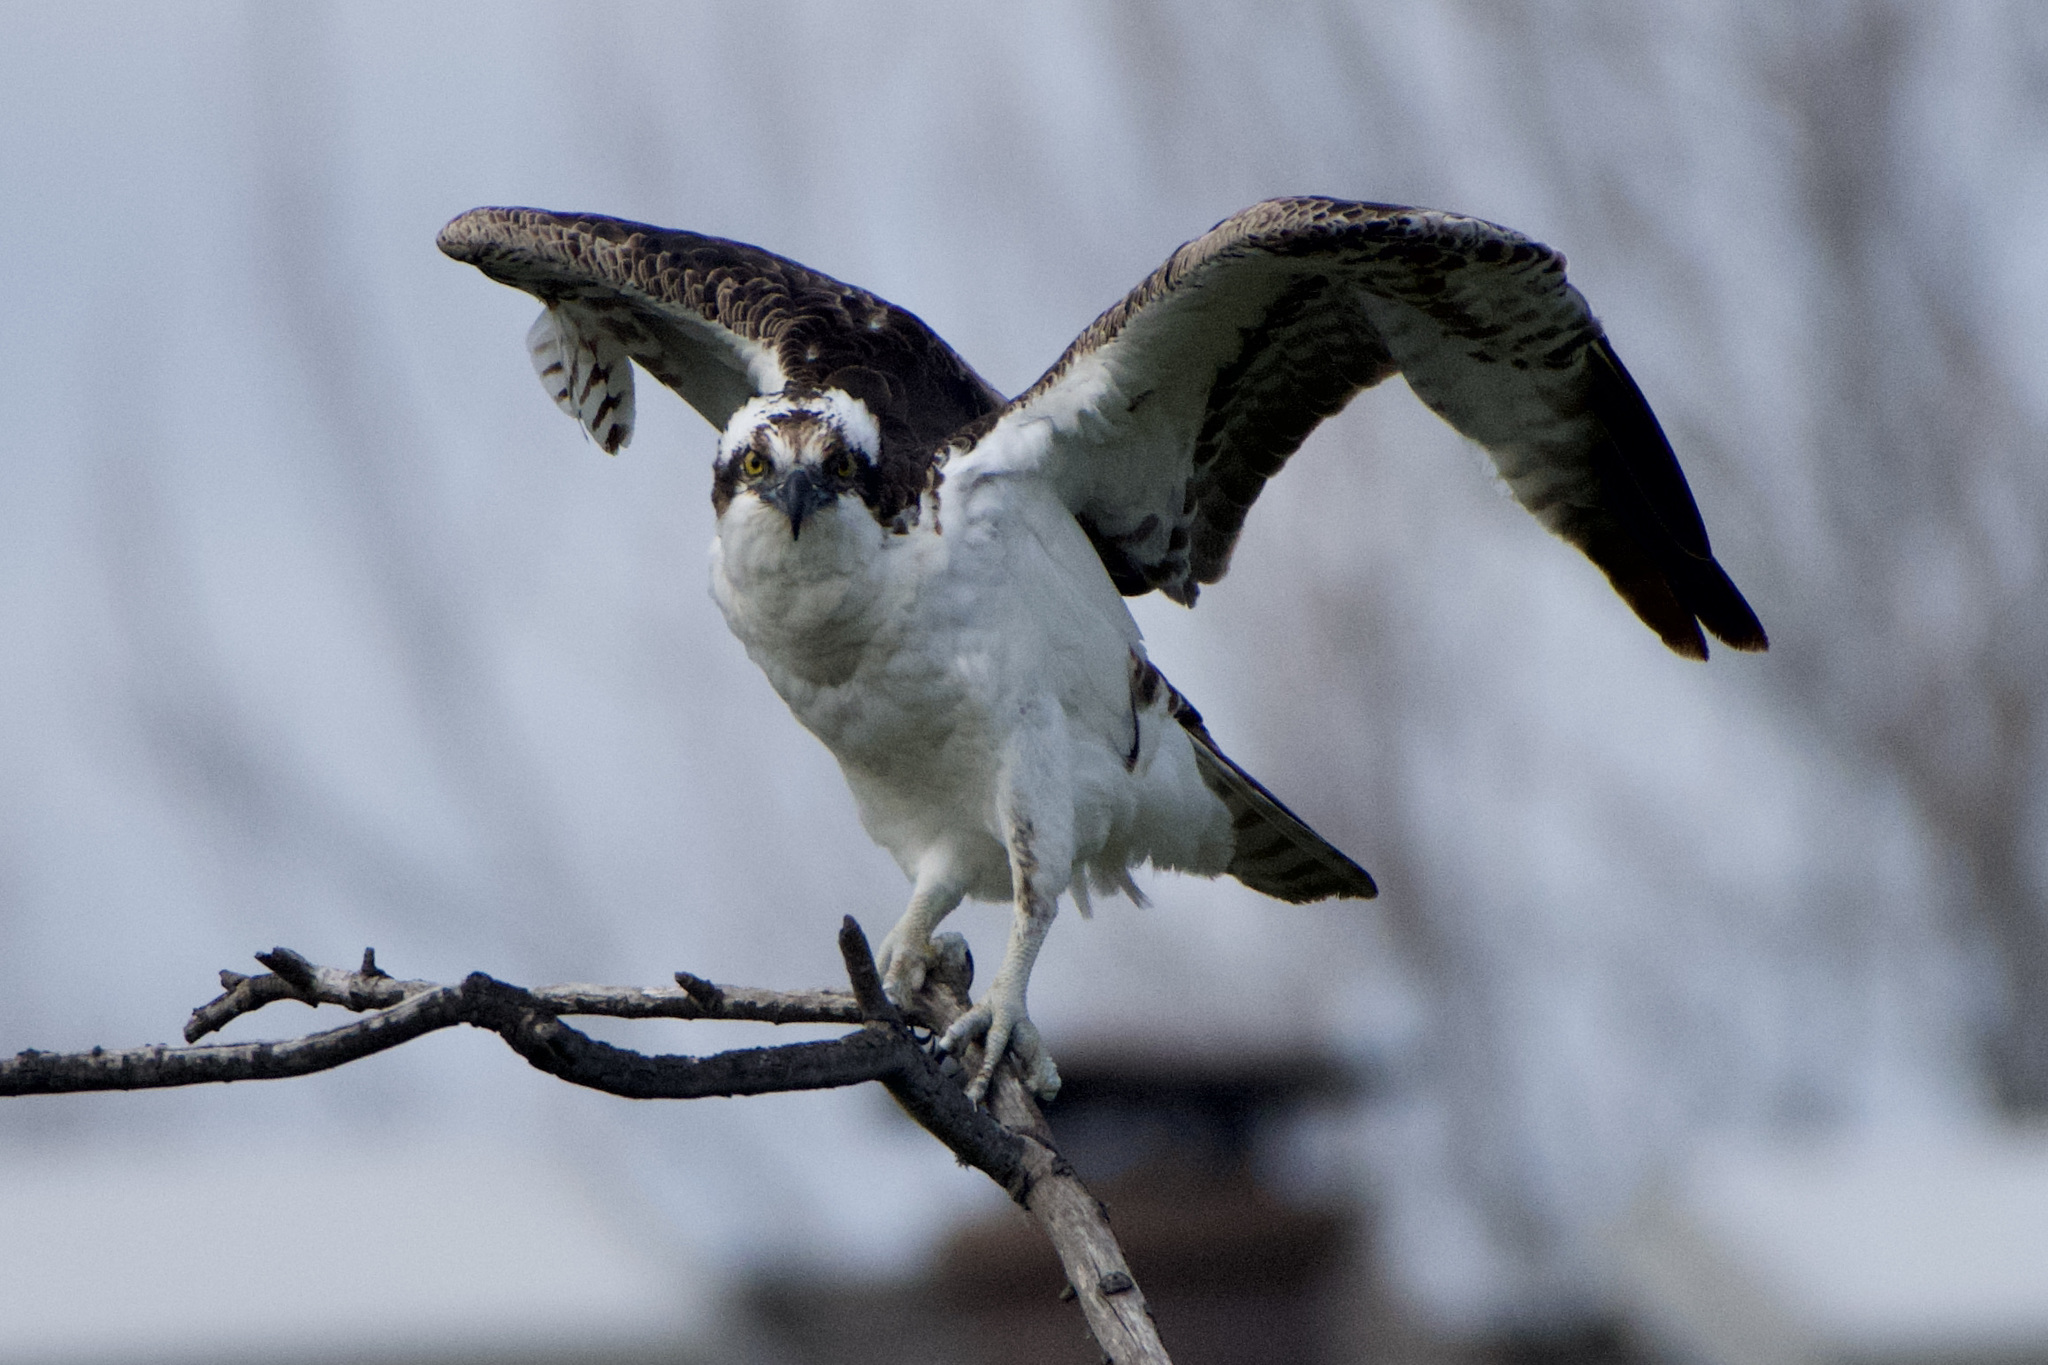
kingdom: Animalia
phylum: Chordata
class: Aves
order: Accipitriformes
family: Pandionidae
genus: Pandion
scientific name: Pandion haliaetus
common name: Osprey
